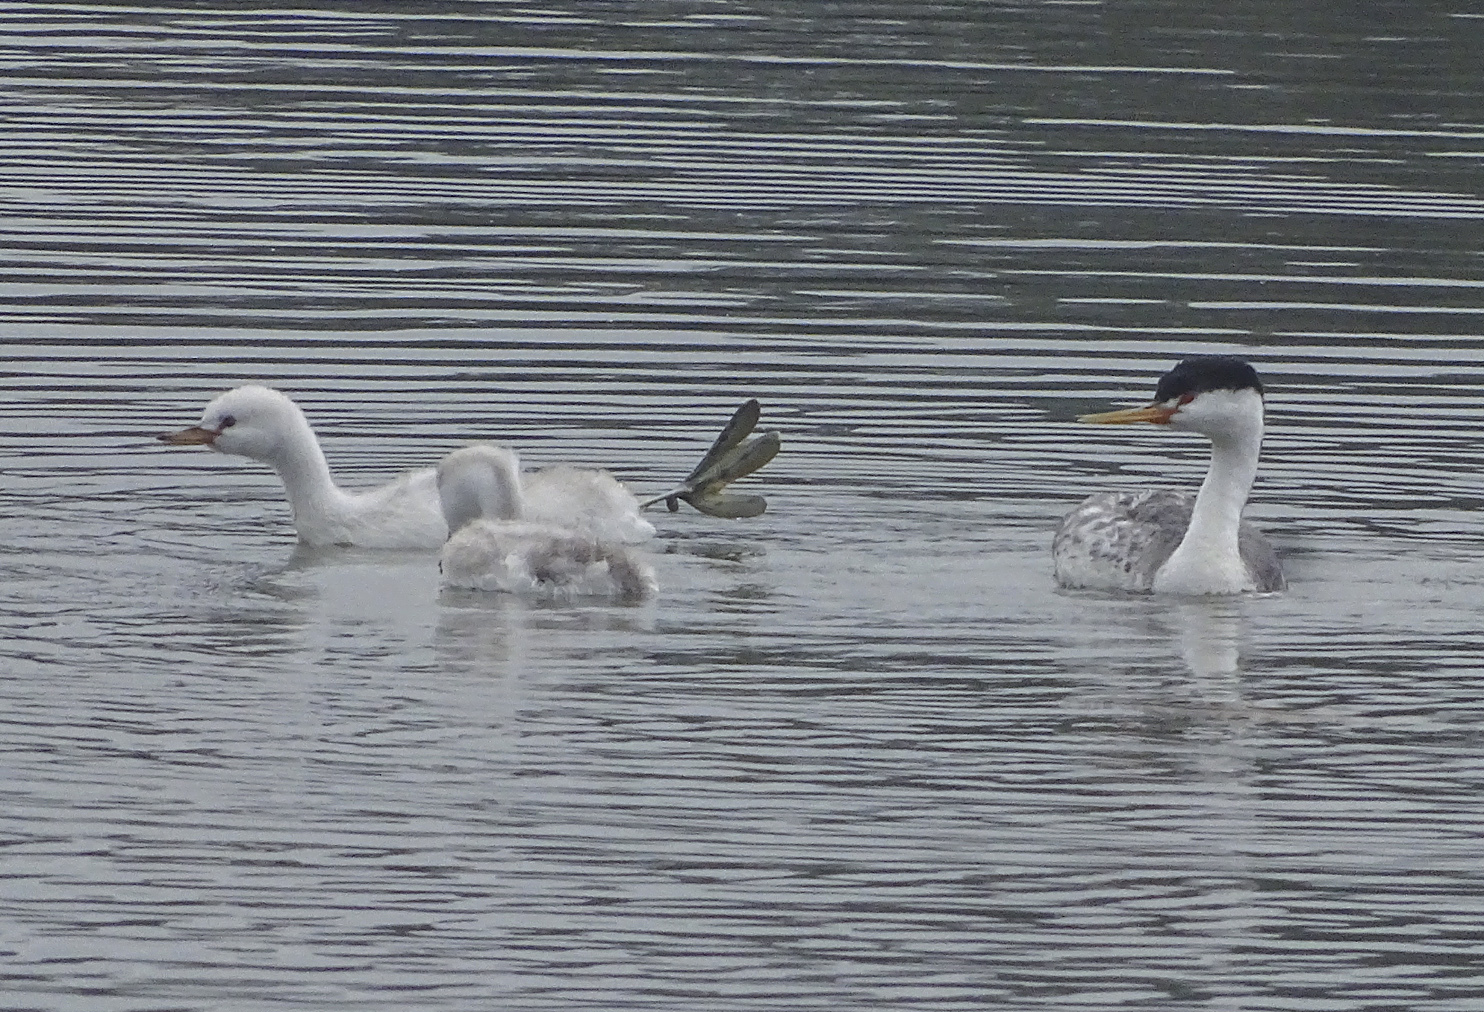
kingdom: Animalia
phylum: Chordata
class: Aves
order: Podicipediformes
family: Podicipedidae
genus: Aechmophorus
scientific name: Aechmophorus clarkii
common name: Clark's grebe
